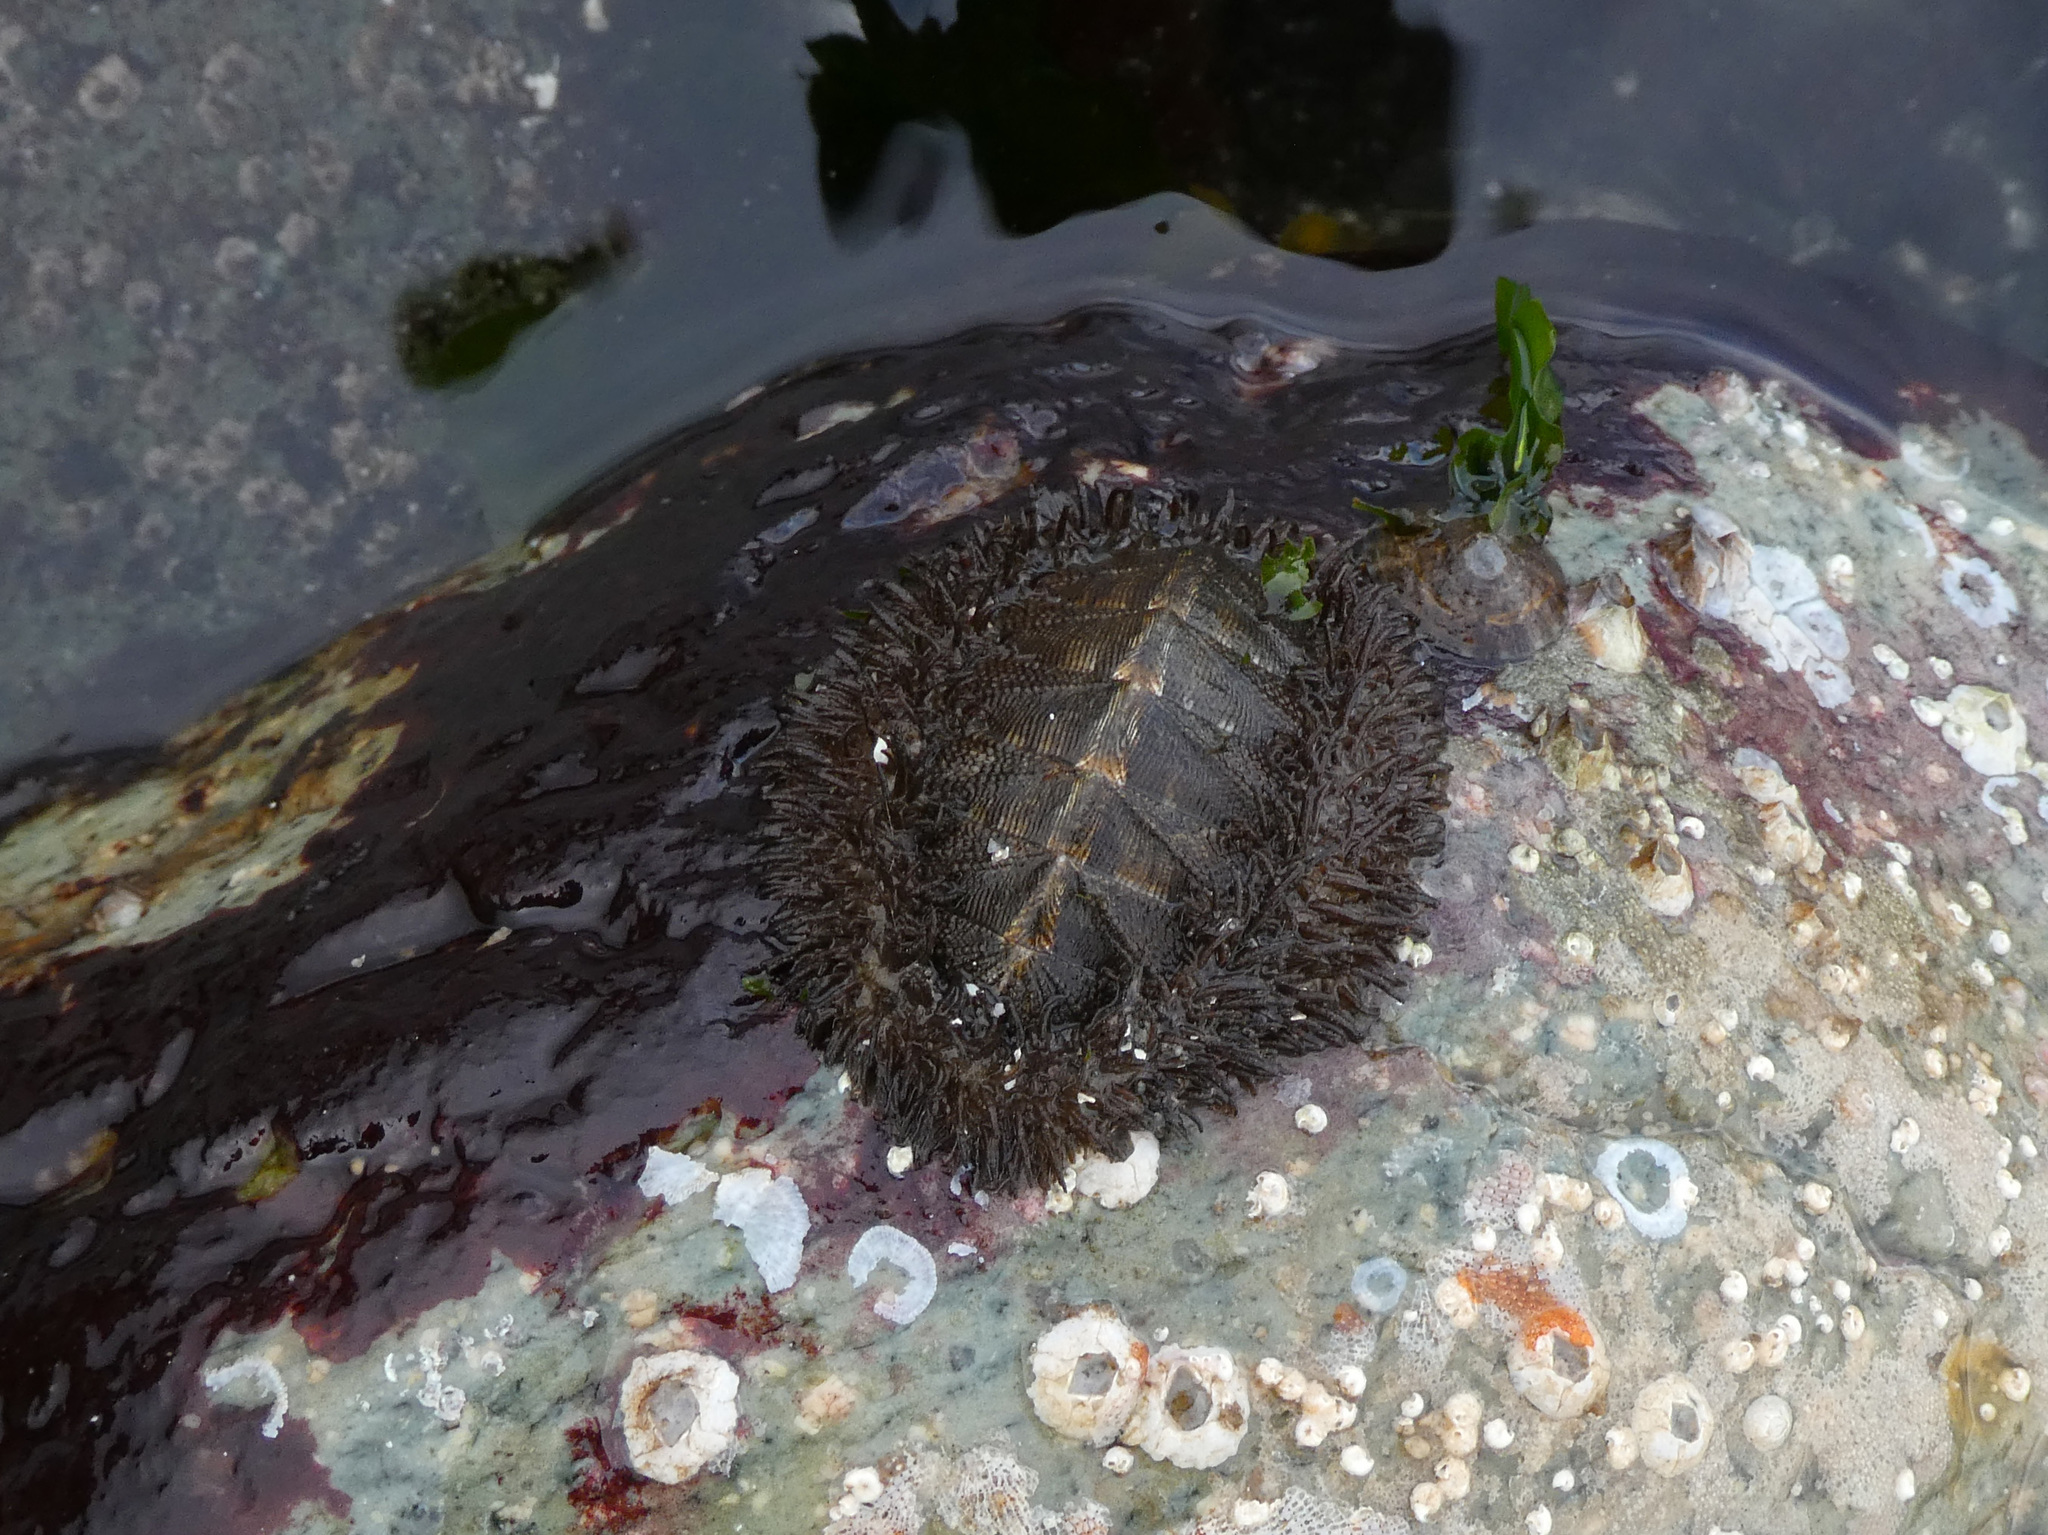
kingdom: Animalia
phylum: Mollusca
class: Polyplacophora
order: Chitonida
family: Mopaliidae
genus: Mopalia
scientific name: Mopalia muscosa
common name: Mossy chiton
